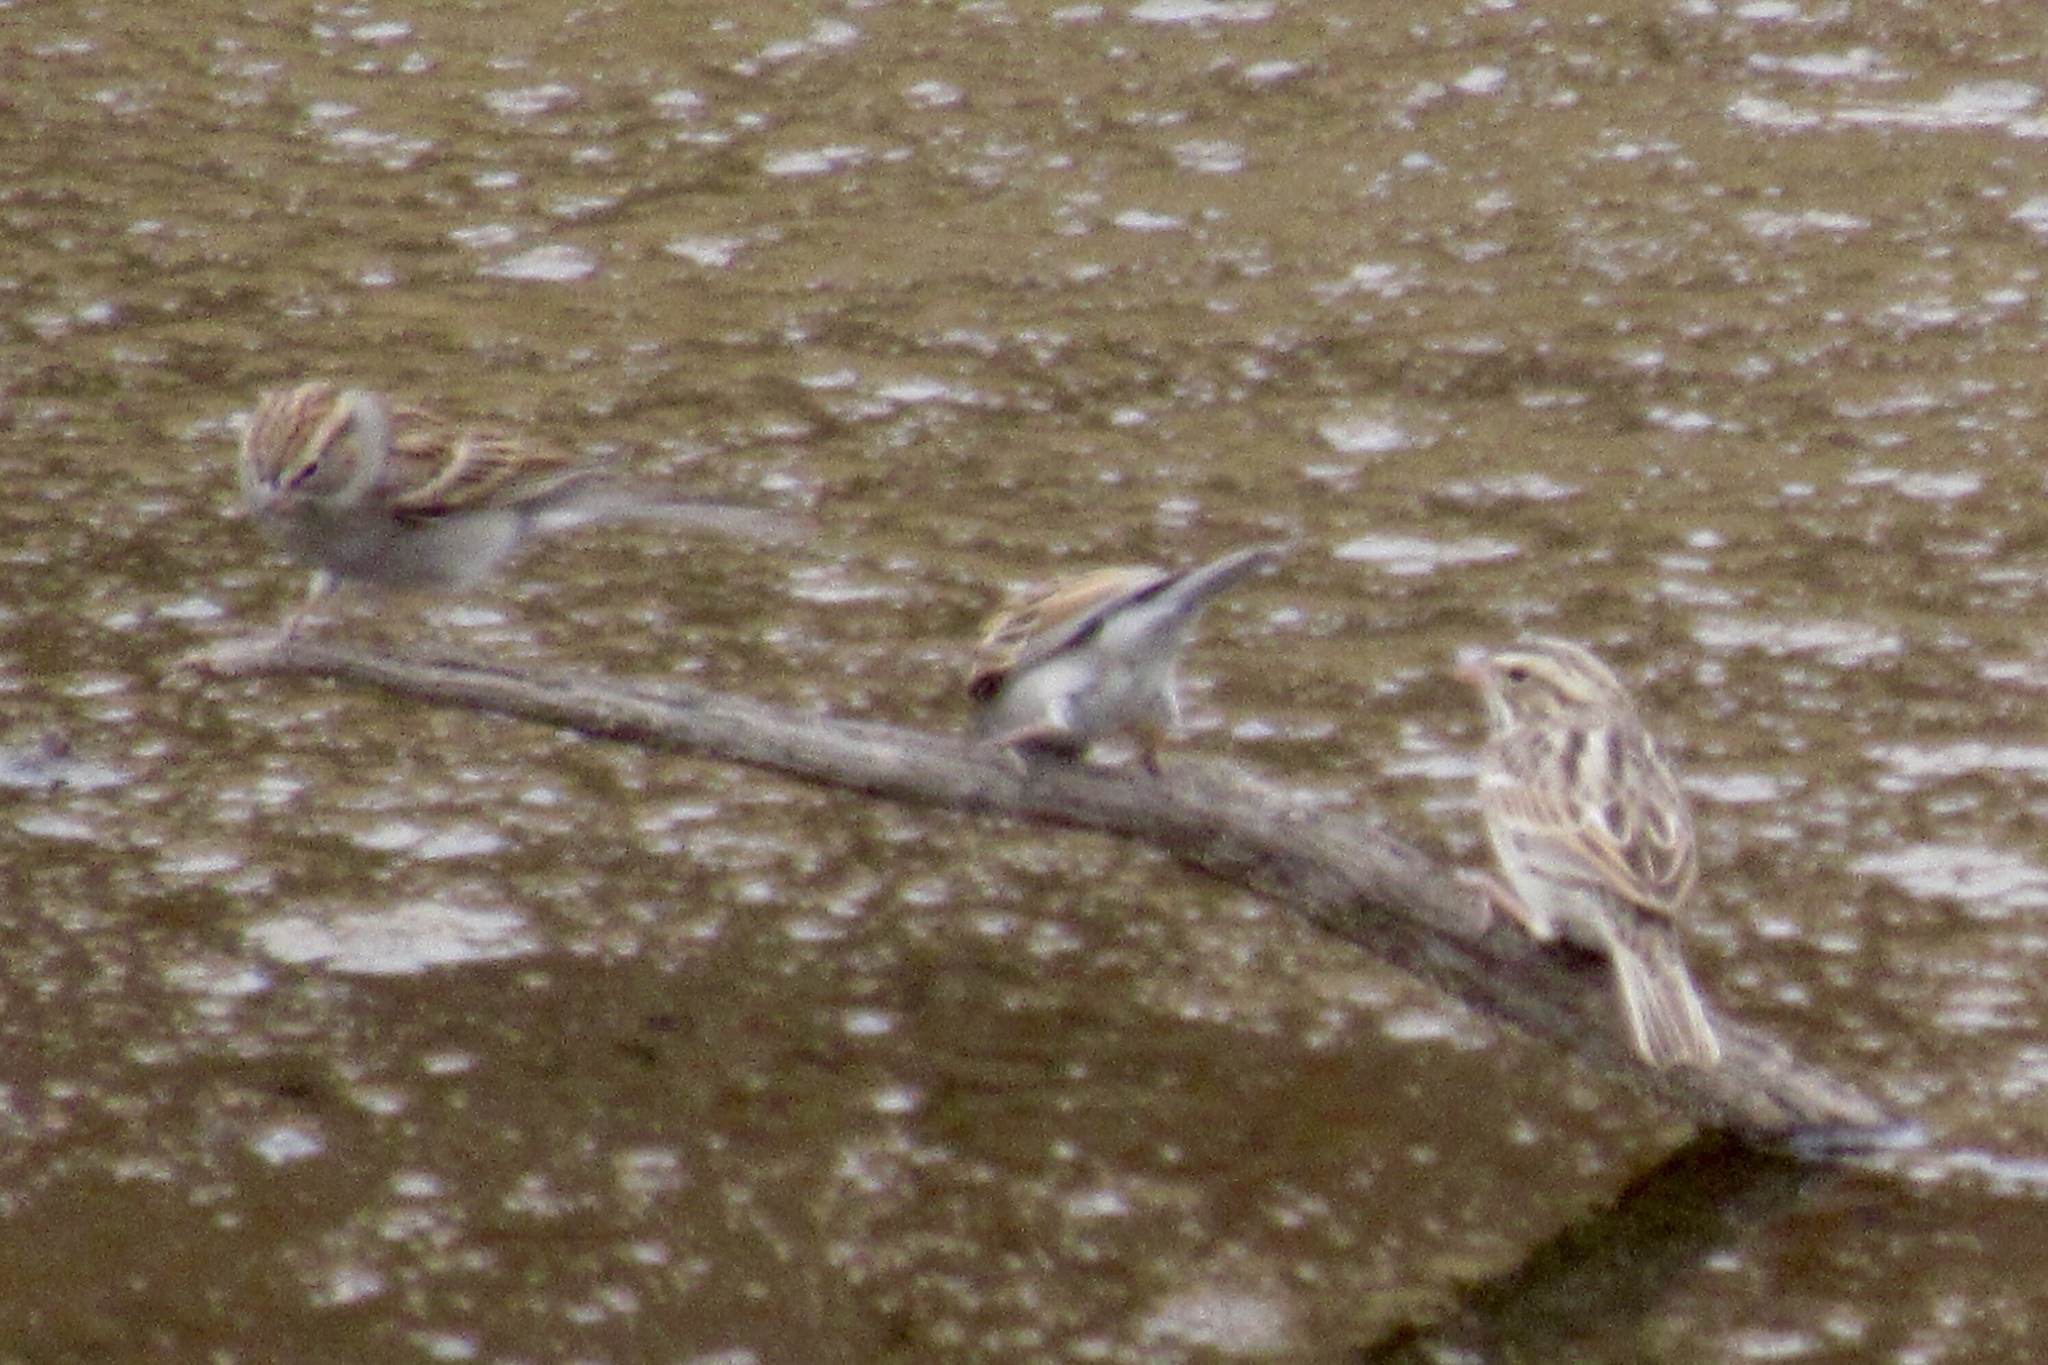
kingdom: Animalia
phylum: Chordata
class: Aves
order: Passeriformes
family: Passerellidae
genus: Spizella
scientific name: Spizella passerina
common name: Chipping sparrow
